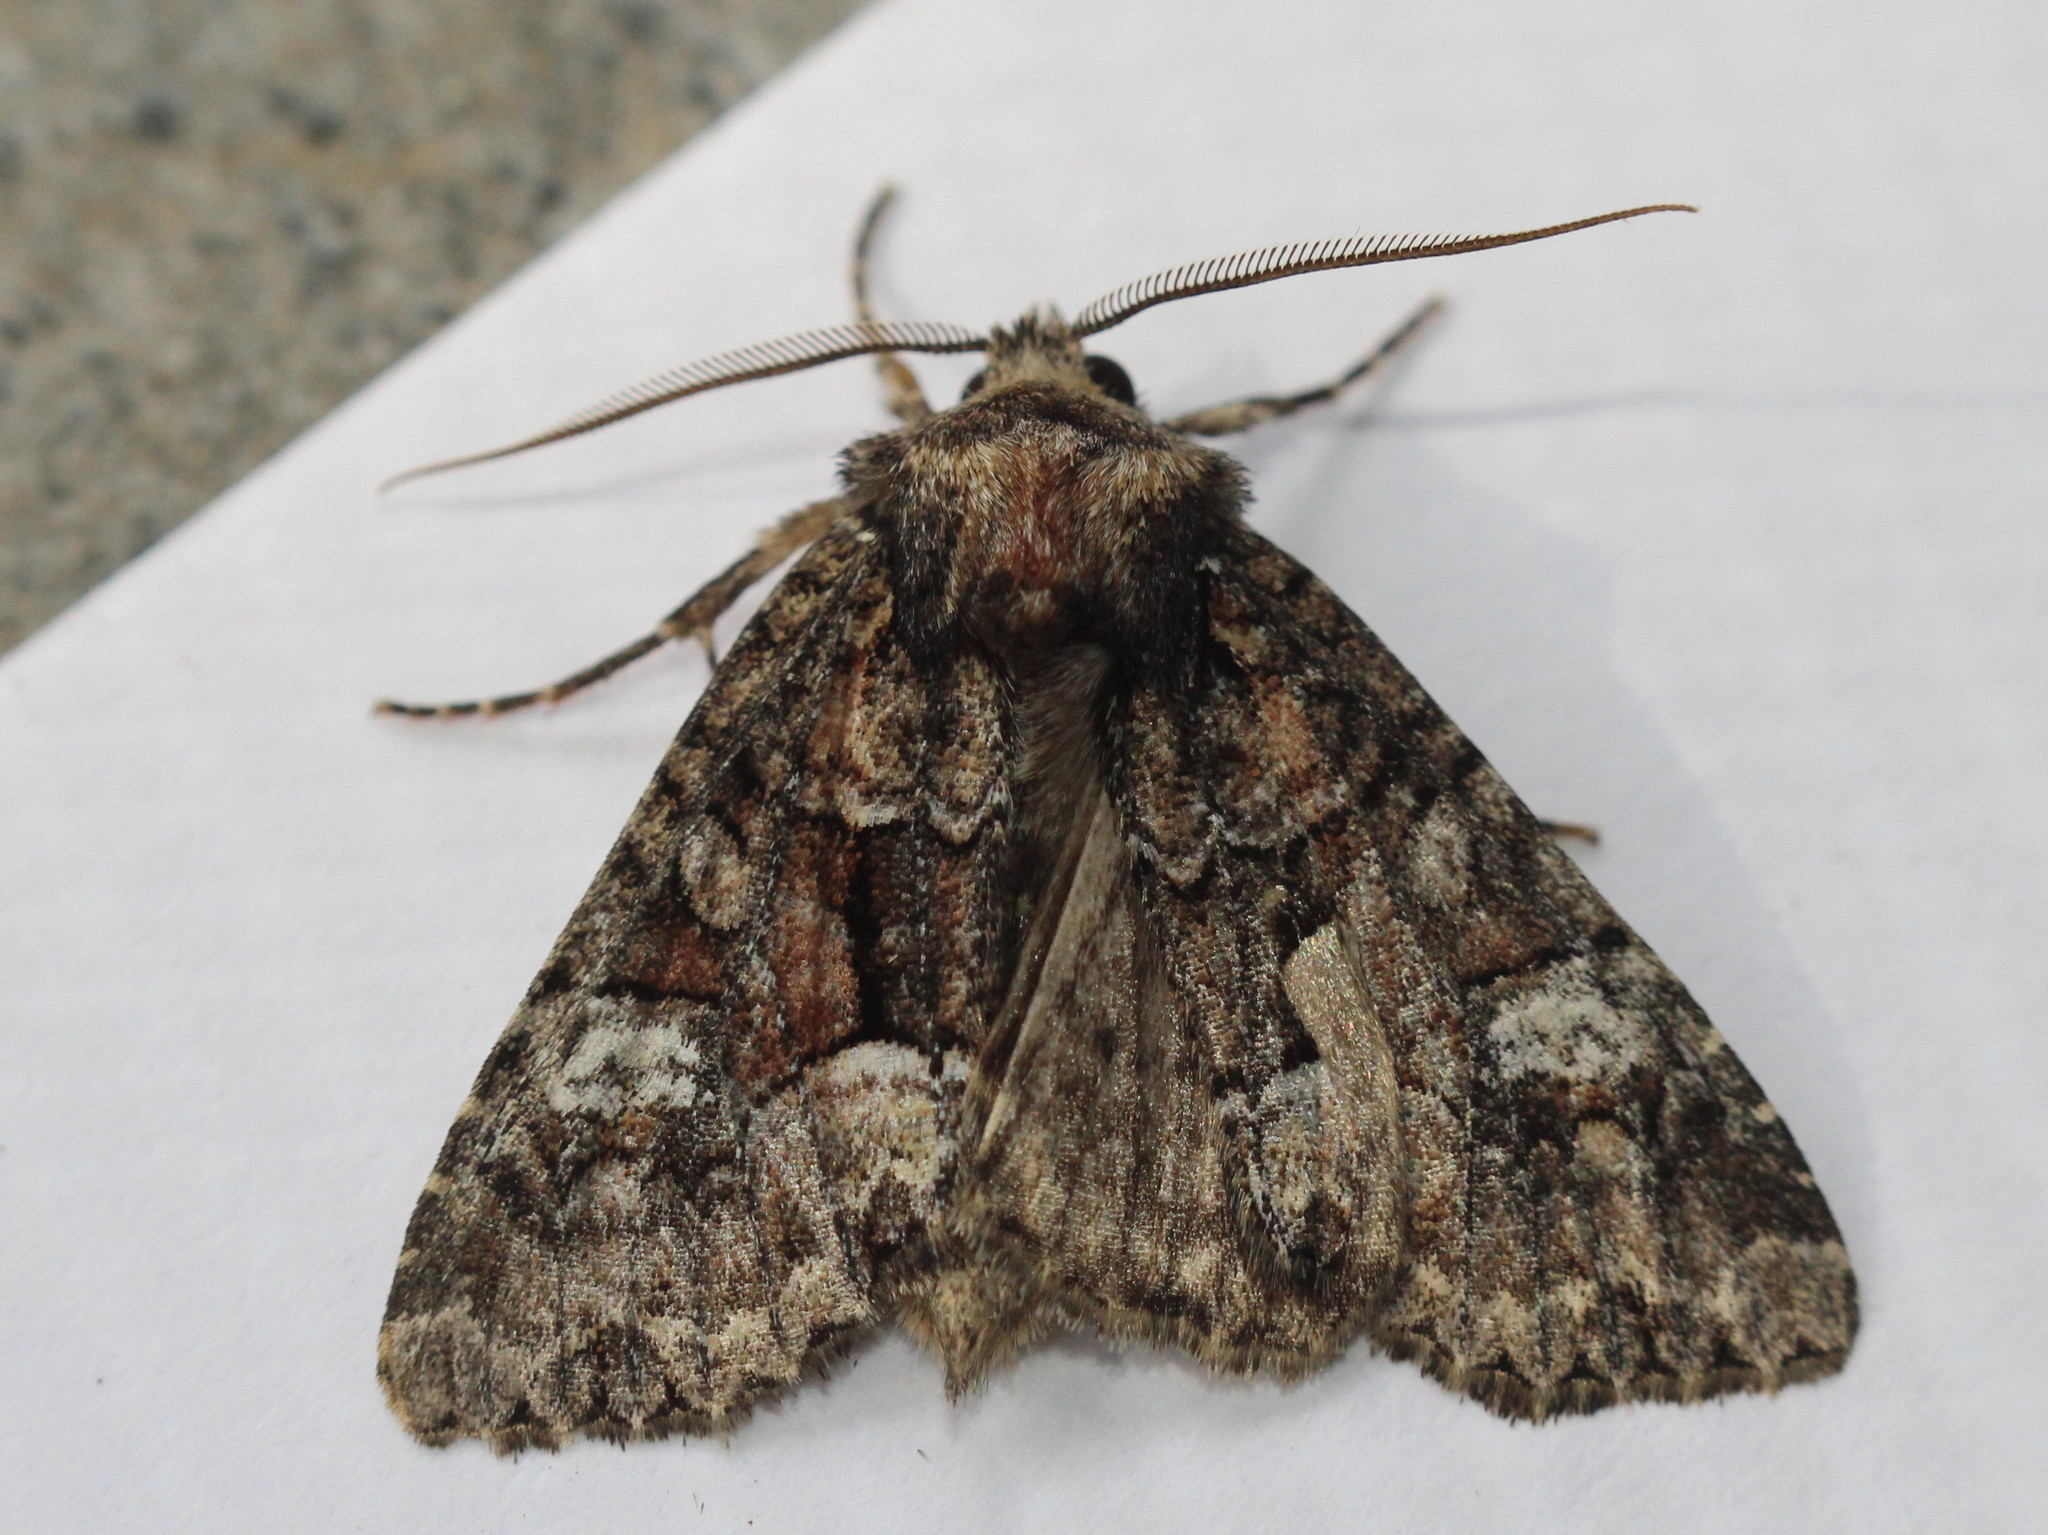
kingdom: Animalia
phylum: Arthropoda
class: Insecta
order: Lepidoptera
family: Noctuidae
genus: Fishia
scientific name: Fishia illocata
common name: Wandering brocade moth
